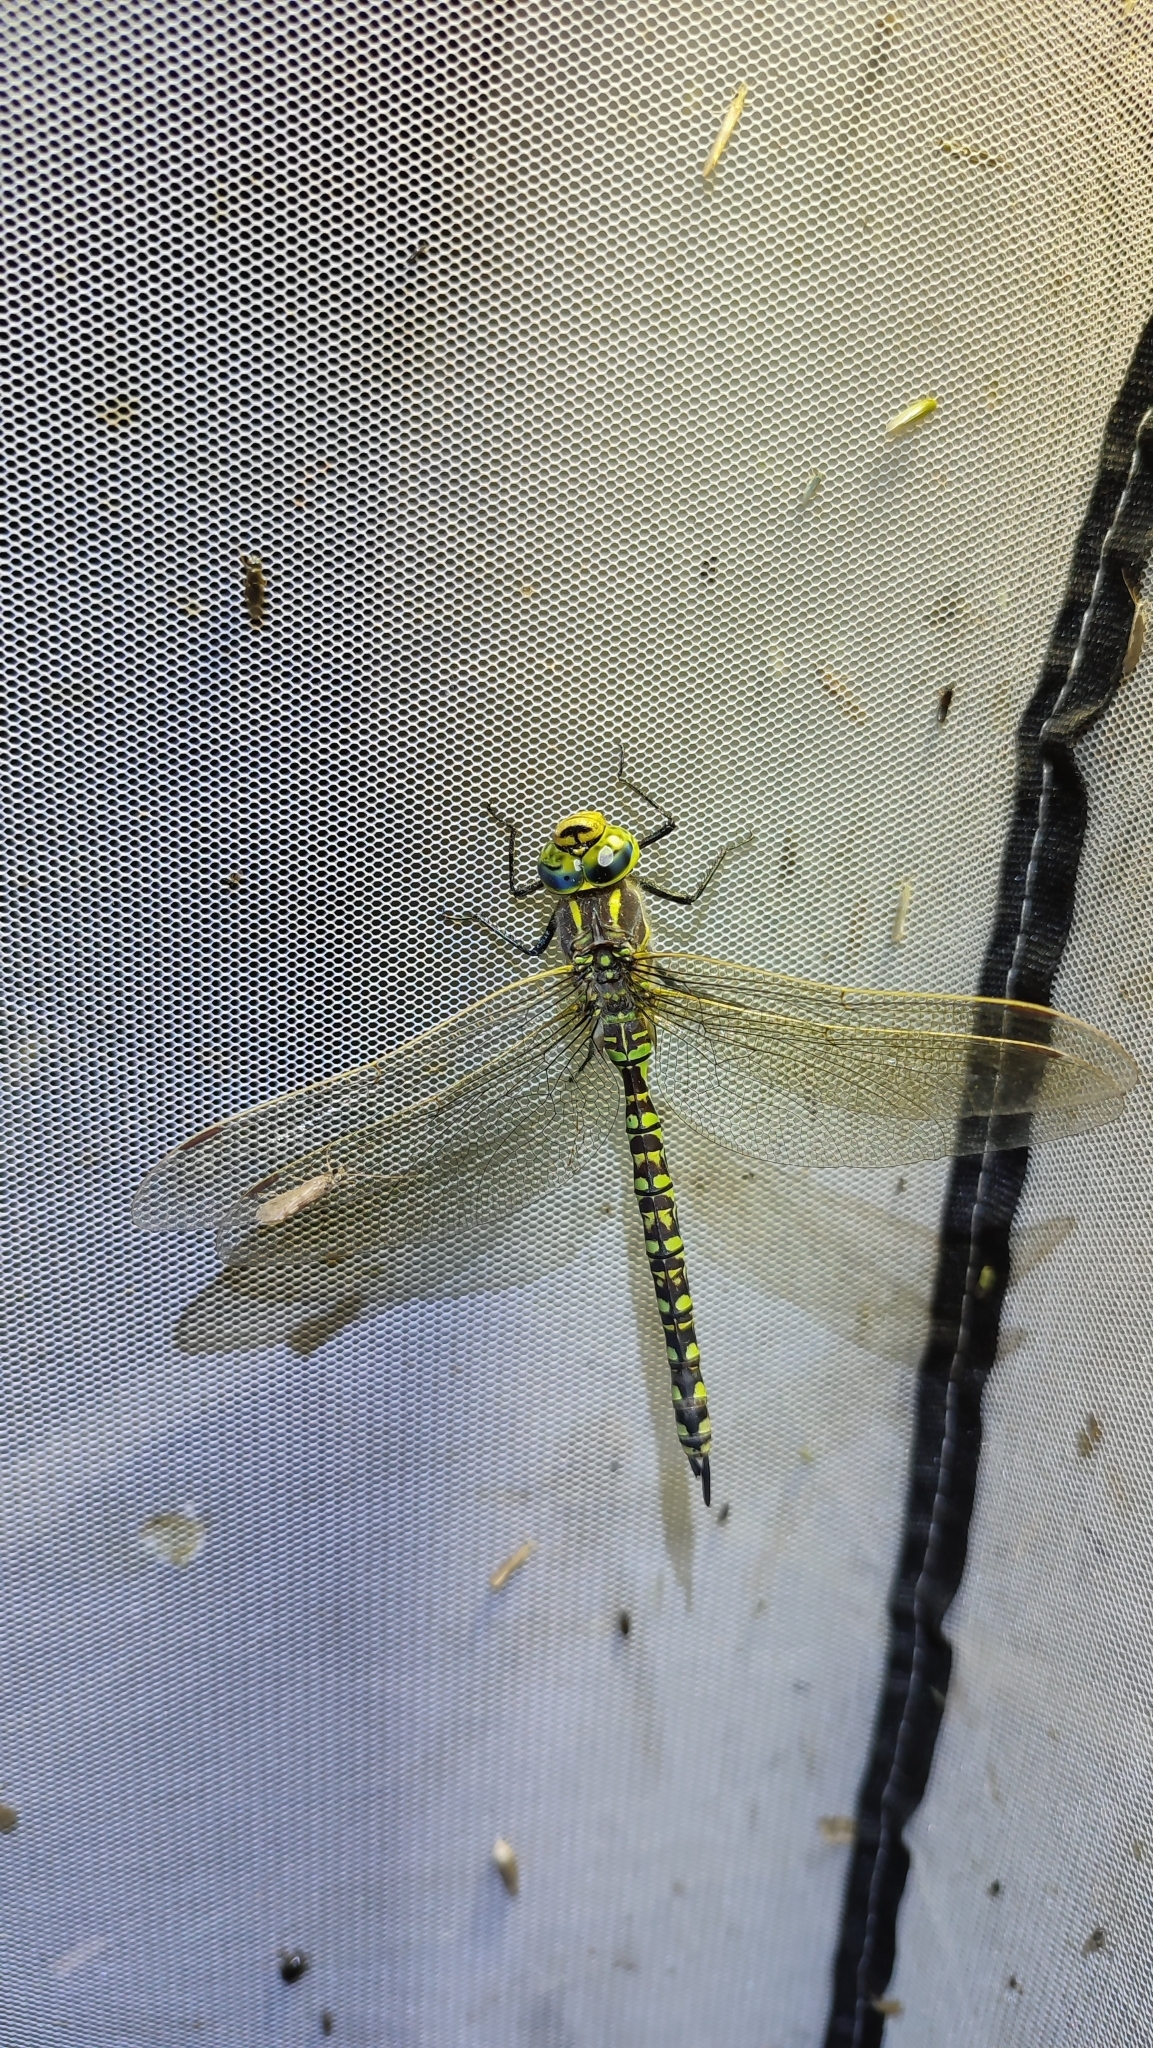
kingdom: Animalia
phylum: Arthropoda
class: Insecta
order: Odonata
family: Aeshnidae
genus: Aeshna
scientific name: Aeshna serrata
